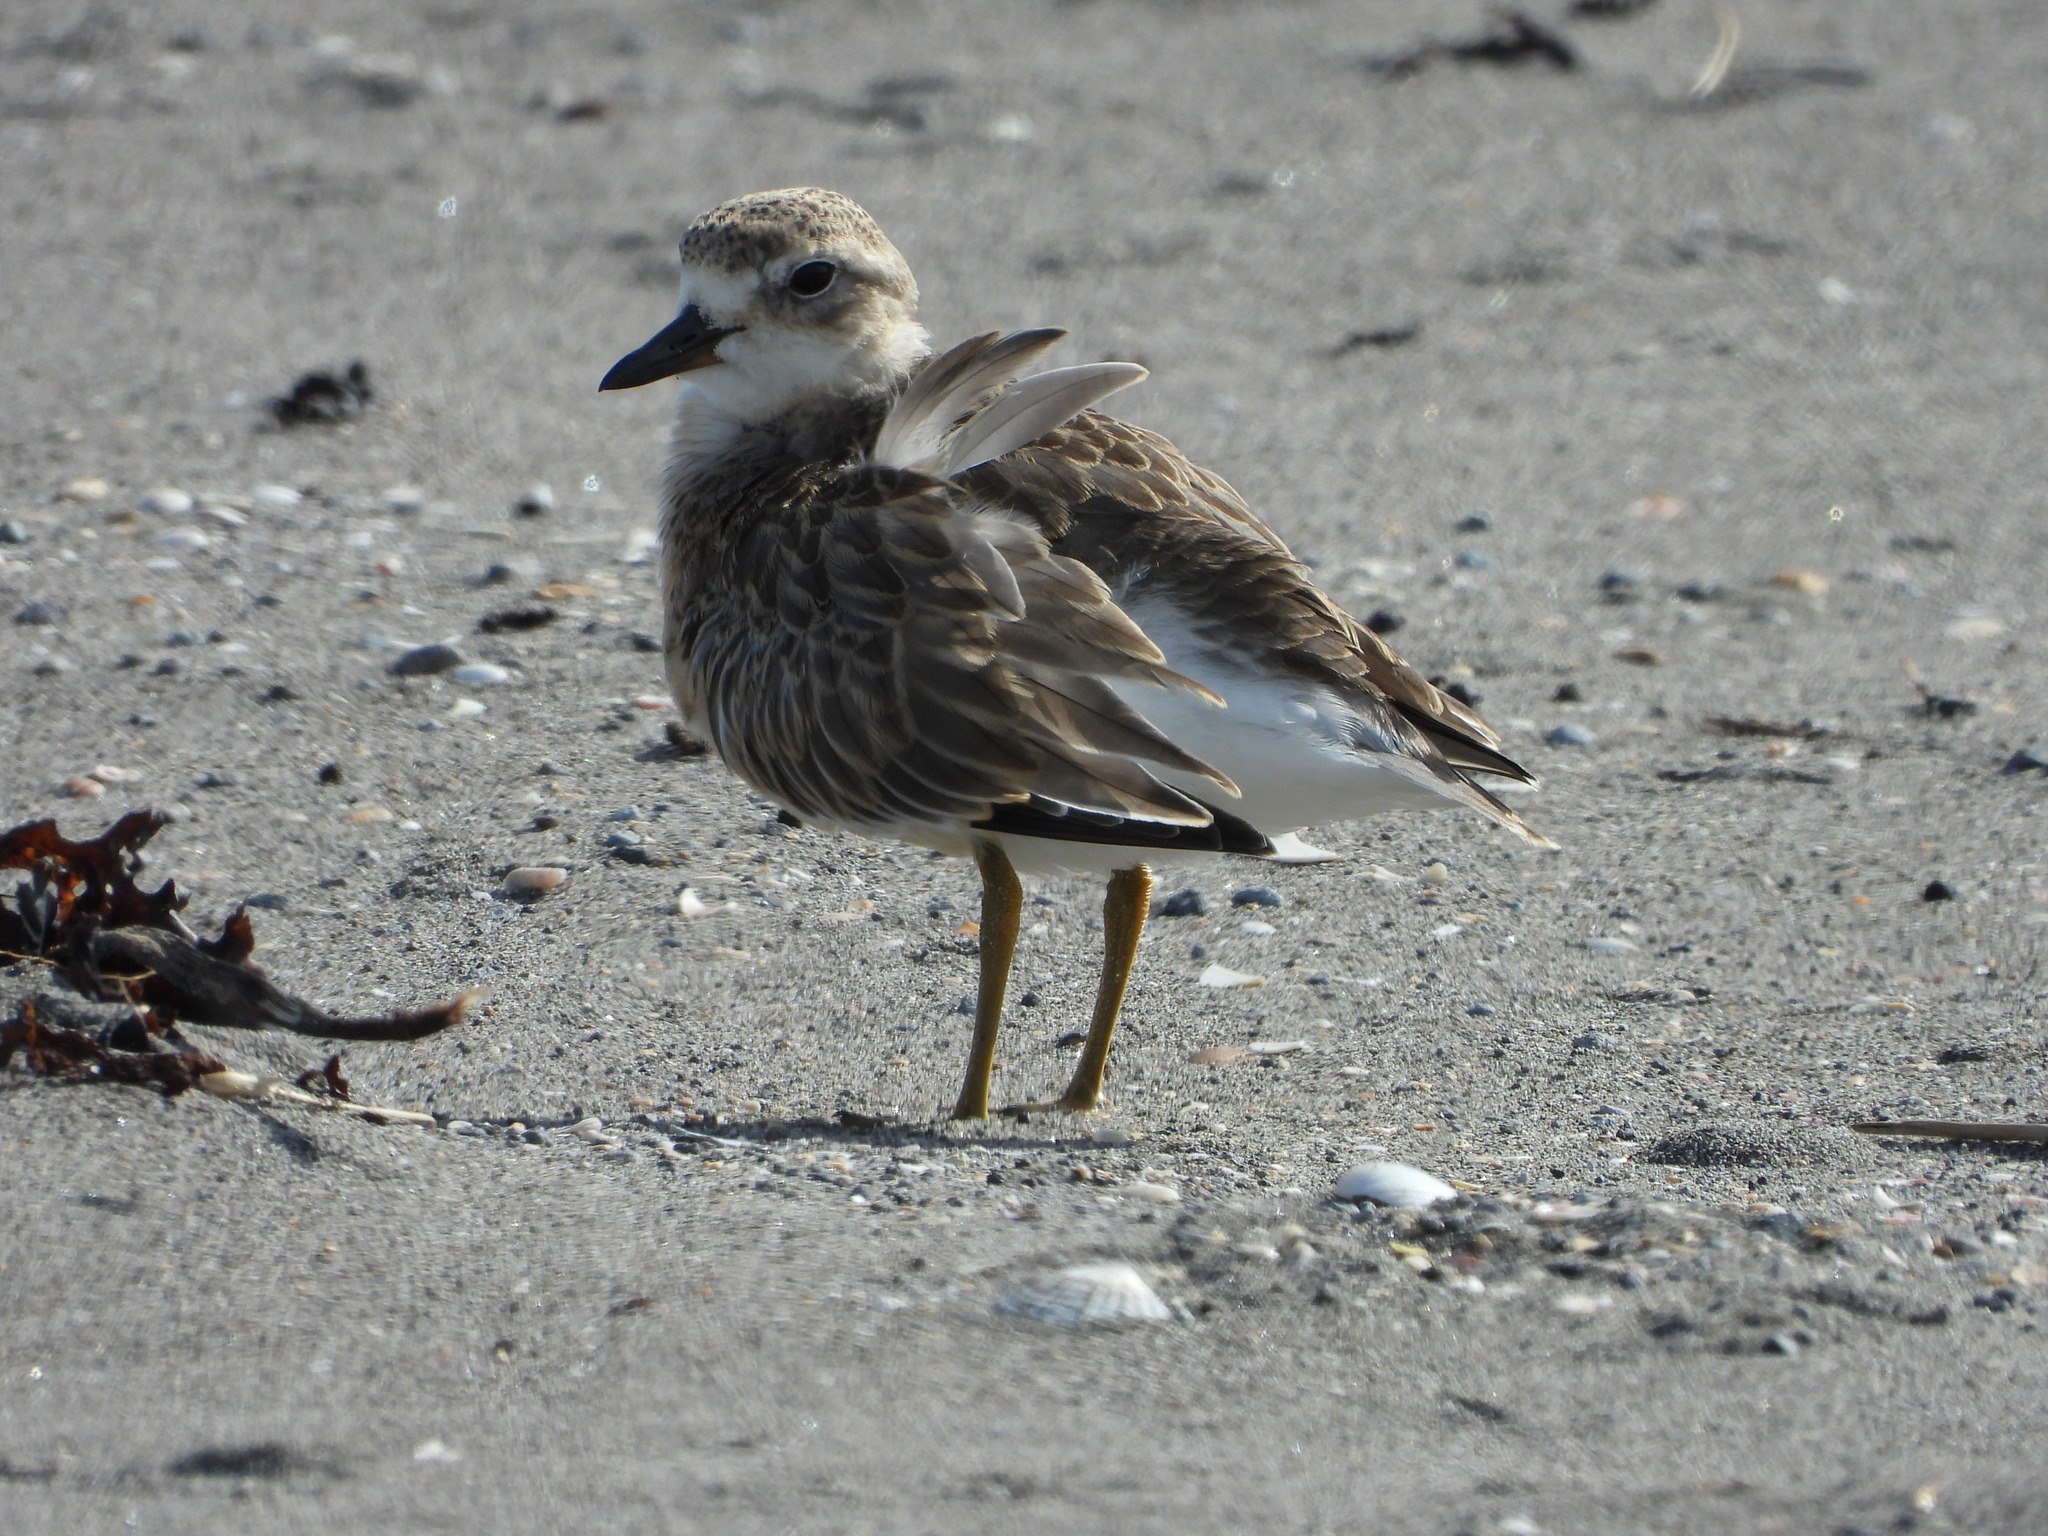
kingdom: Animalia
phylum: Chordata
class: Aves
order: Charadriiformes
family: Charadriidae
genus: Anarhynchus
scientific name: Anarhynchus
